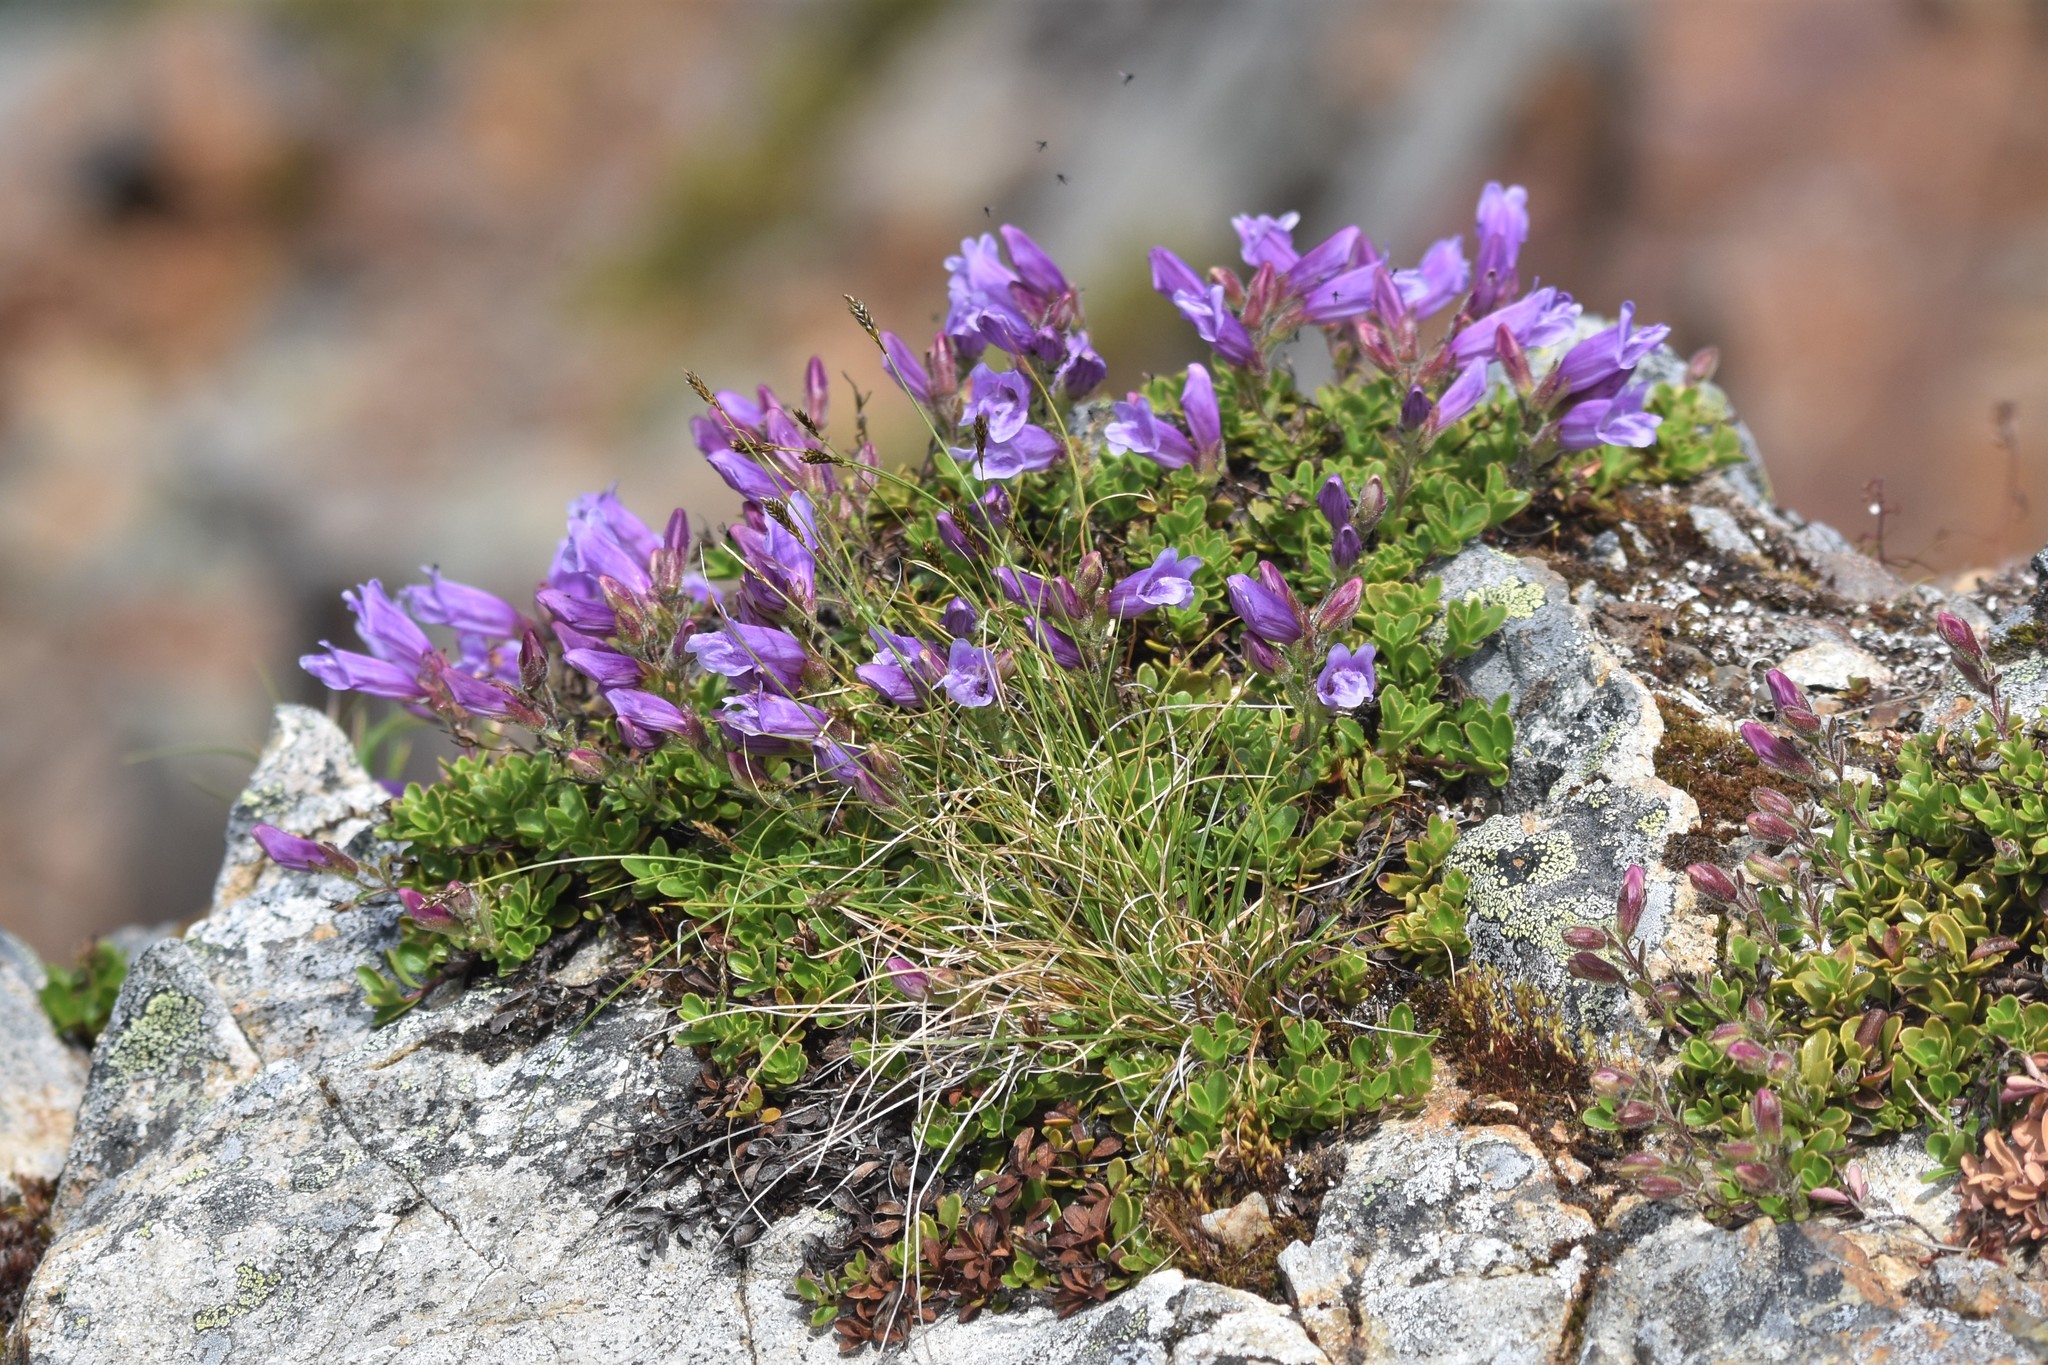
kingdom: Plantae
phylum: Tracheophyta
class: Magnoliopsida
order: Lamiales
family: Plantaginaceae
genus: Penstemon
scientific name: Penstemon davidsonii
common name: Davidson's penstemon
